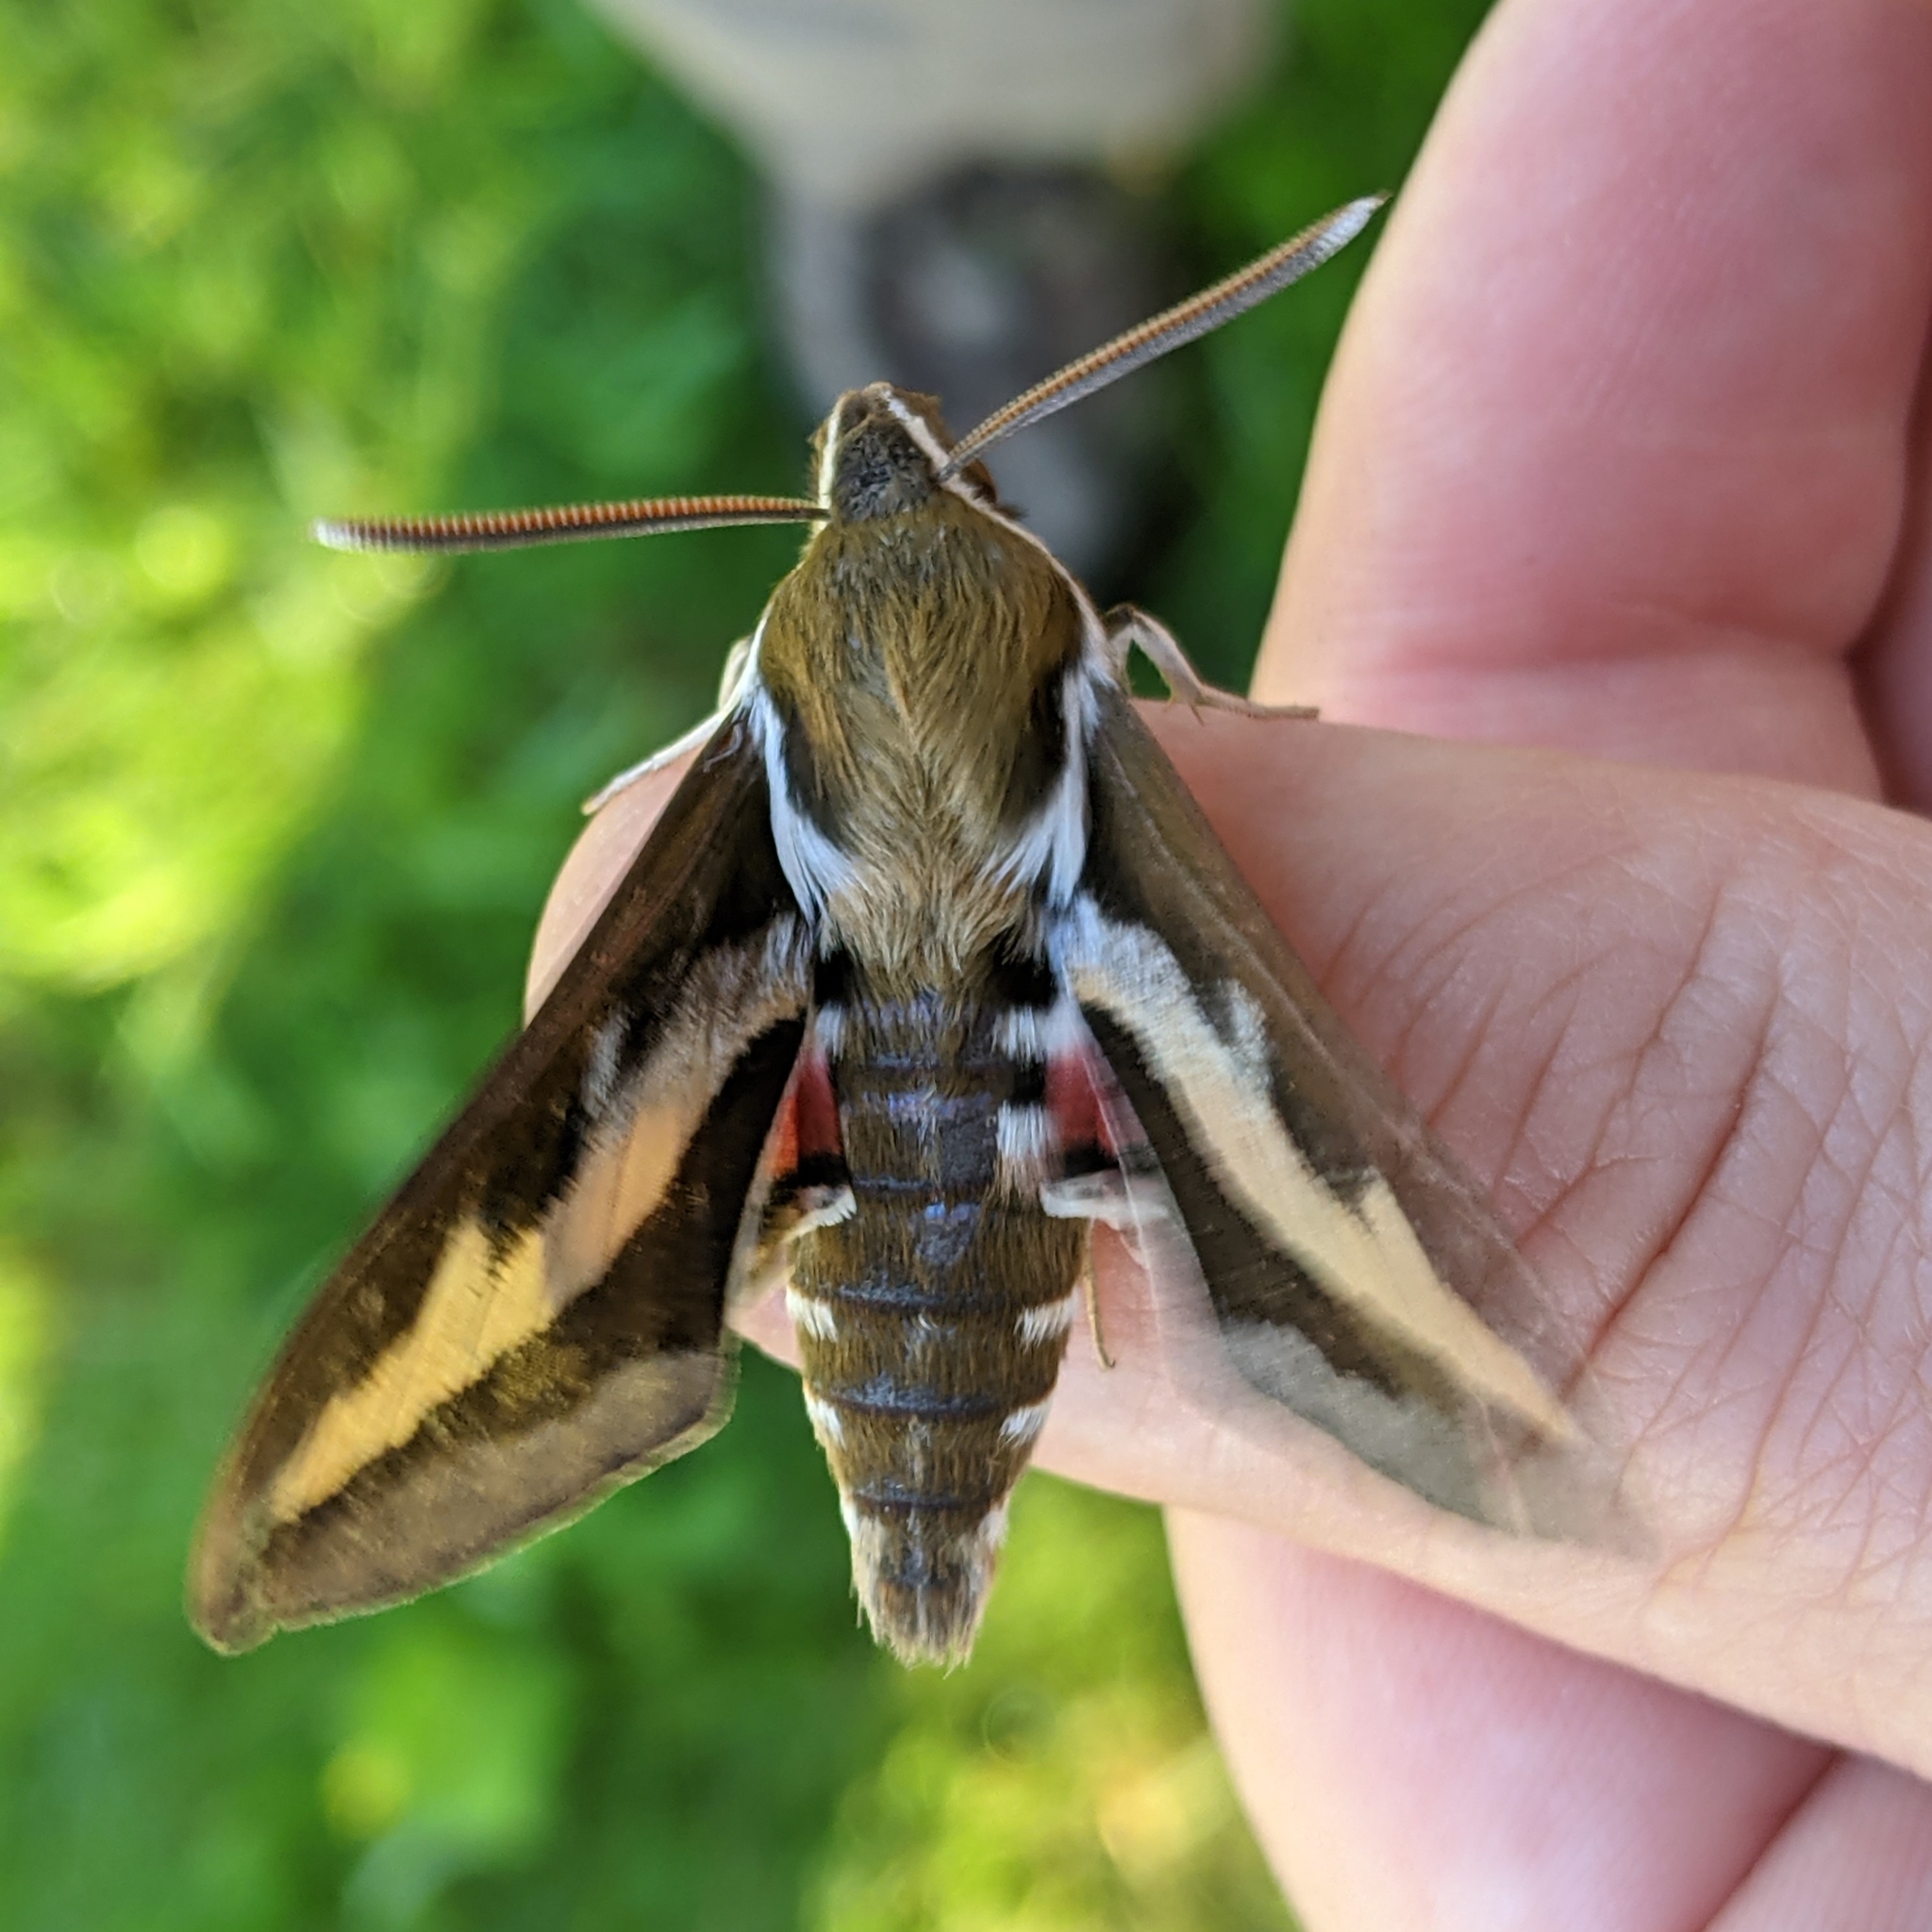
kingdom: Animalia
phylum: Arthropoda
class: Insecta
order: Lepidoptera
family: Sphingidae
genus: Hyles
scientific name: Hyles gallii
